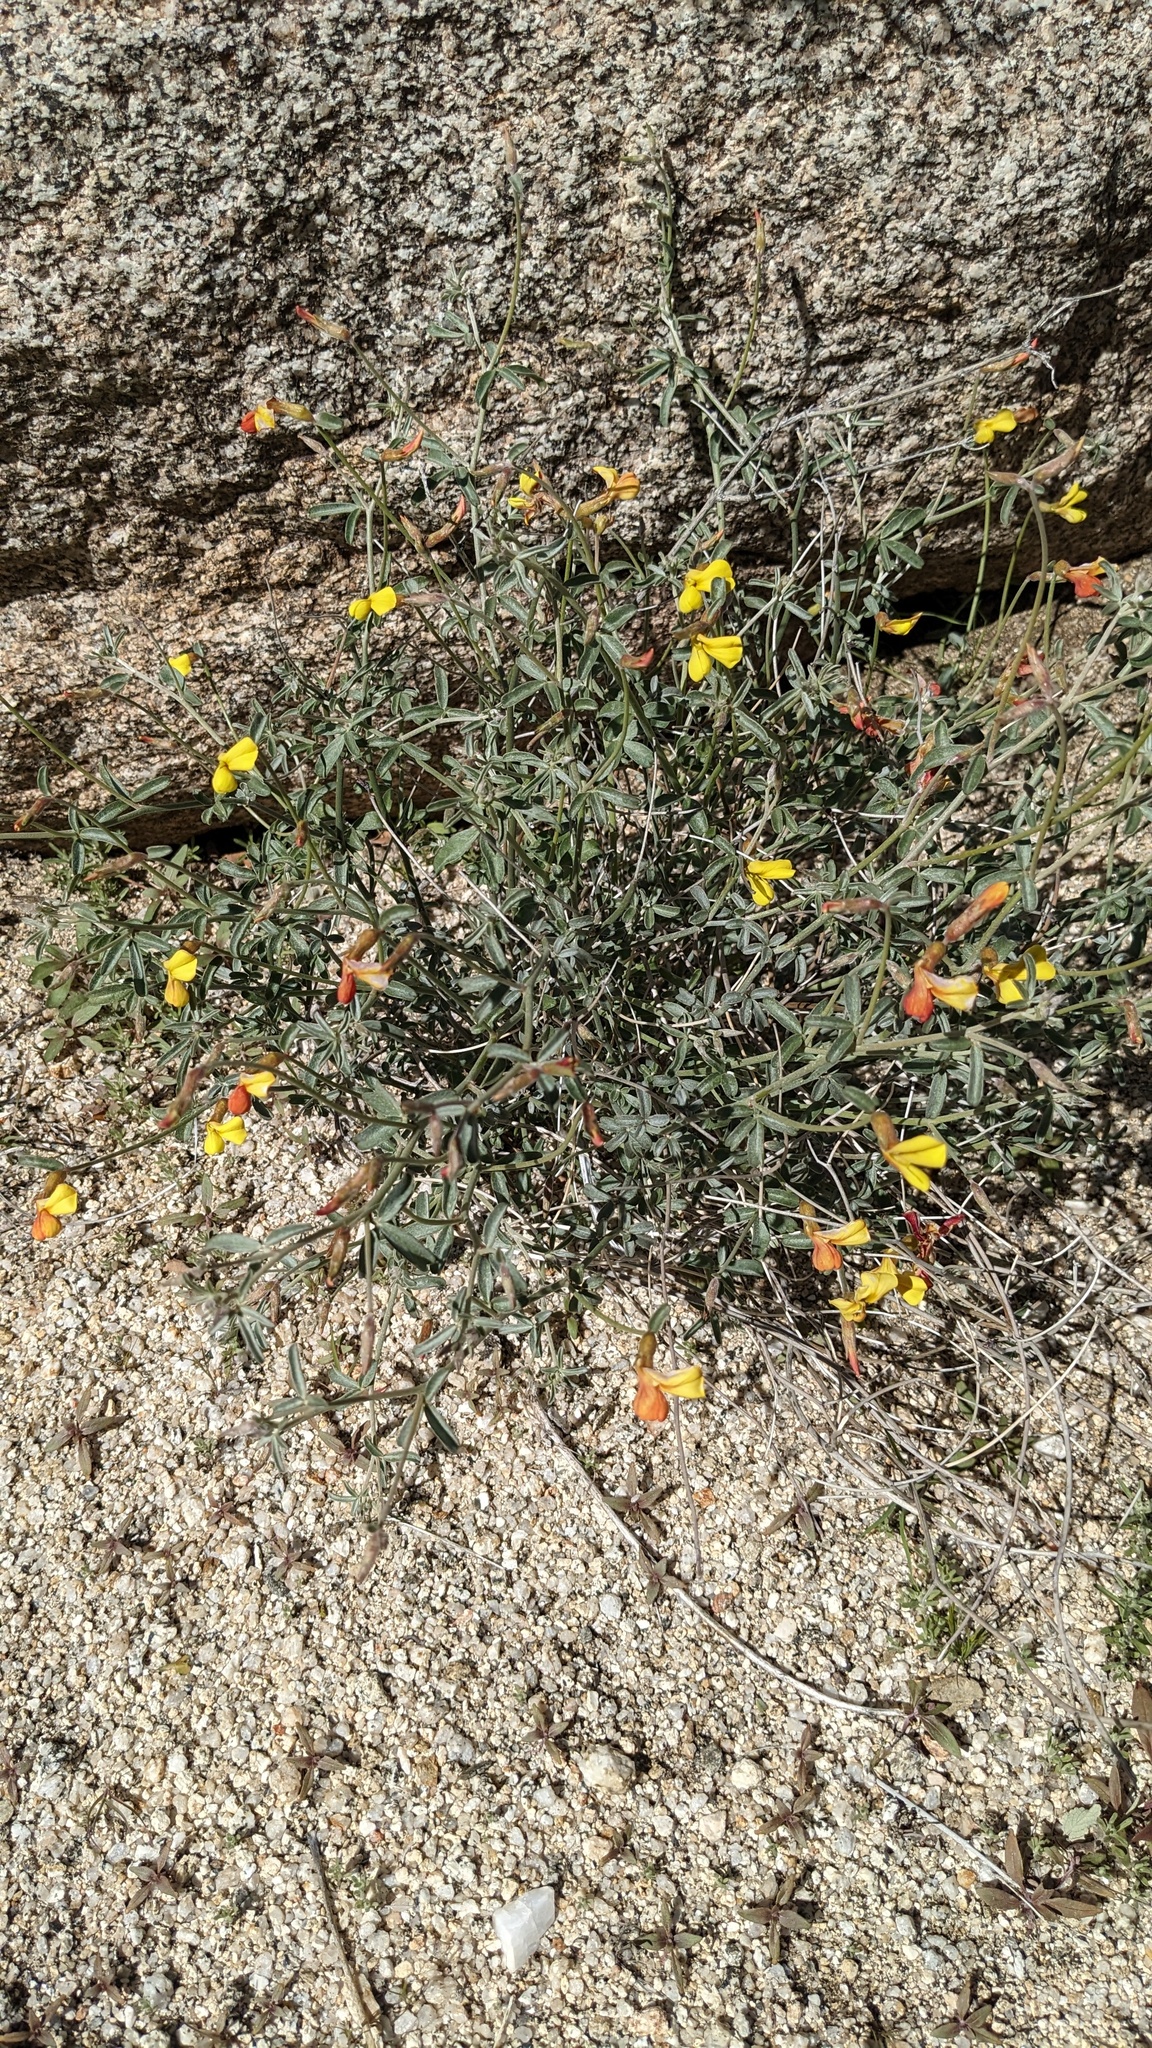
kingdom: Plantae
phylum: Tracheophyta
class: Magnoliopsida
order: Fabales
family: Fabaceae
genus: Acmispon
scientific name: Acmispon rigidus
